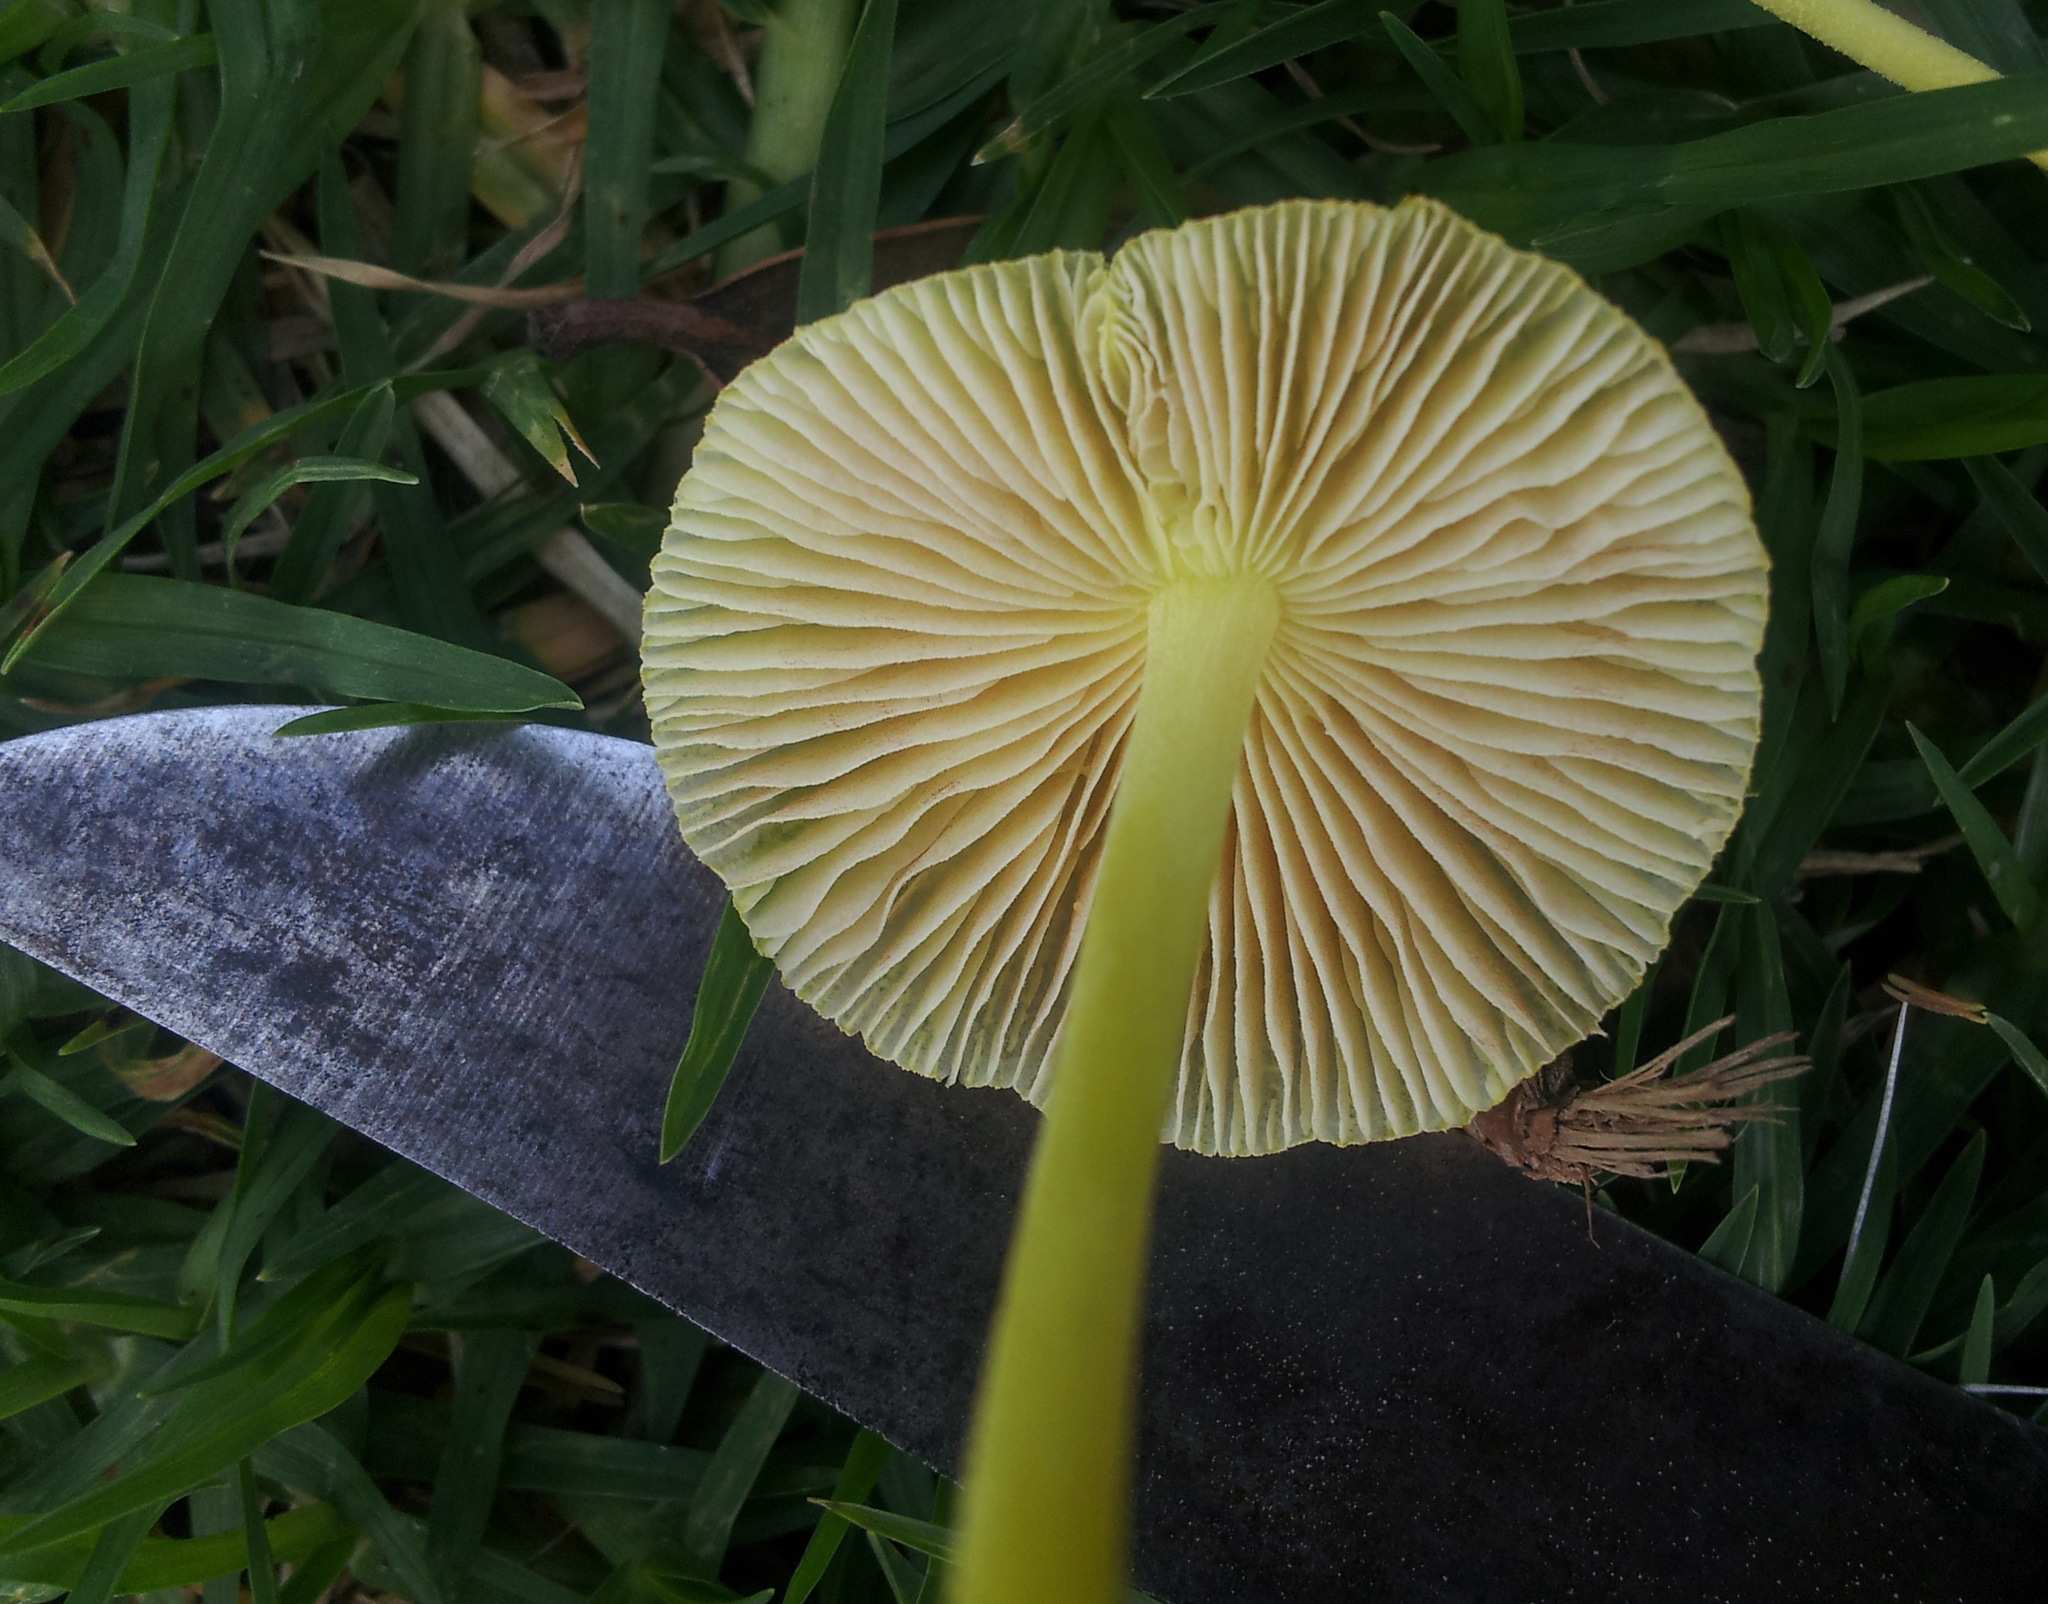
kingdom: Fungi
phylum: Basidiomycota
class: Agaricomycetes
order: Agaricales
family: Bolbitiaceae
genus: Bolbitius
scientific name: Bolbitius titubans
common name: Yellow fieldcap
